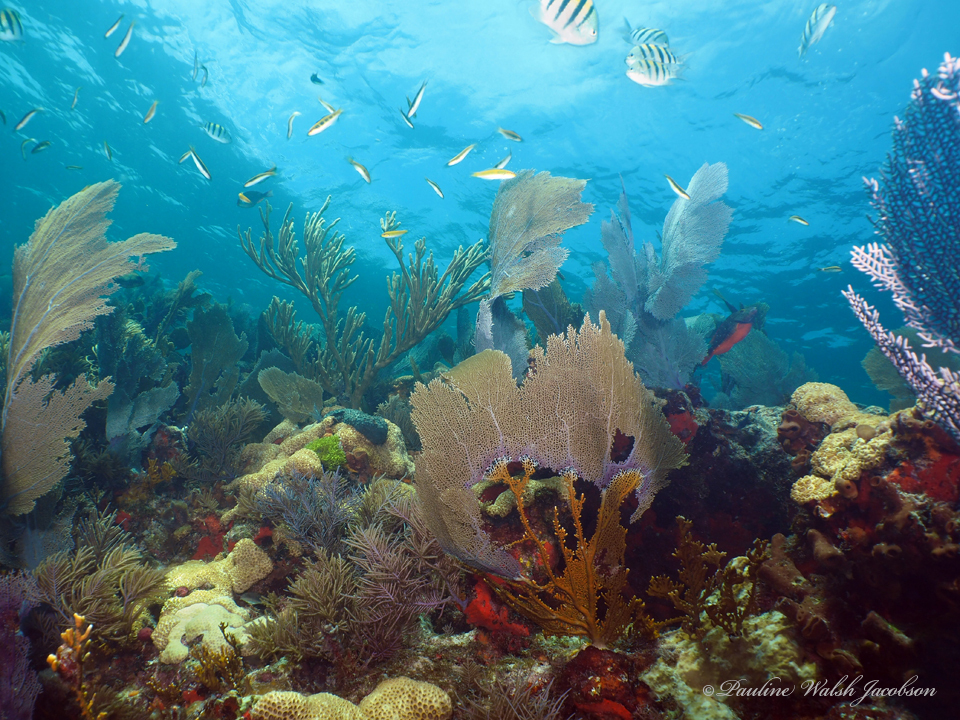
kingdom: Animalia
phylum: Chordata
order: Perciformes
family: Pomacentridae
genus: Abudefduf
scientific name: Abudefduf saxatilis
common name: Sergeant major
